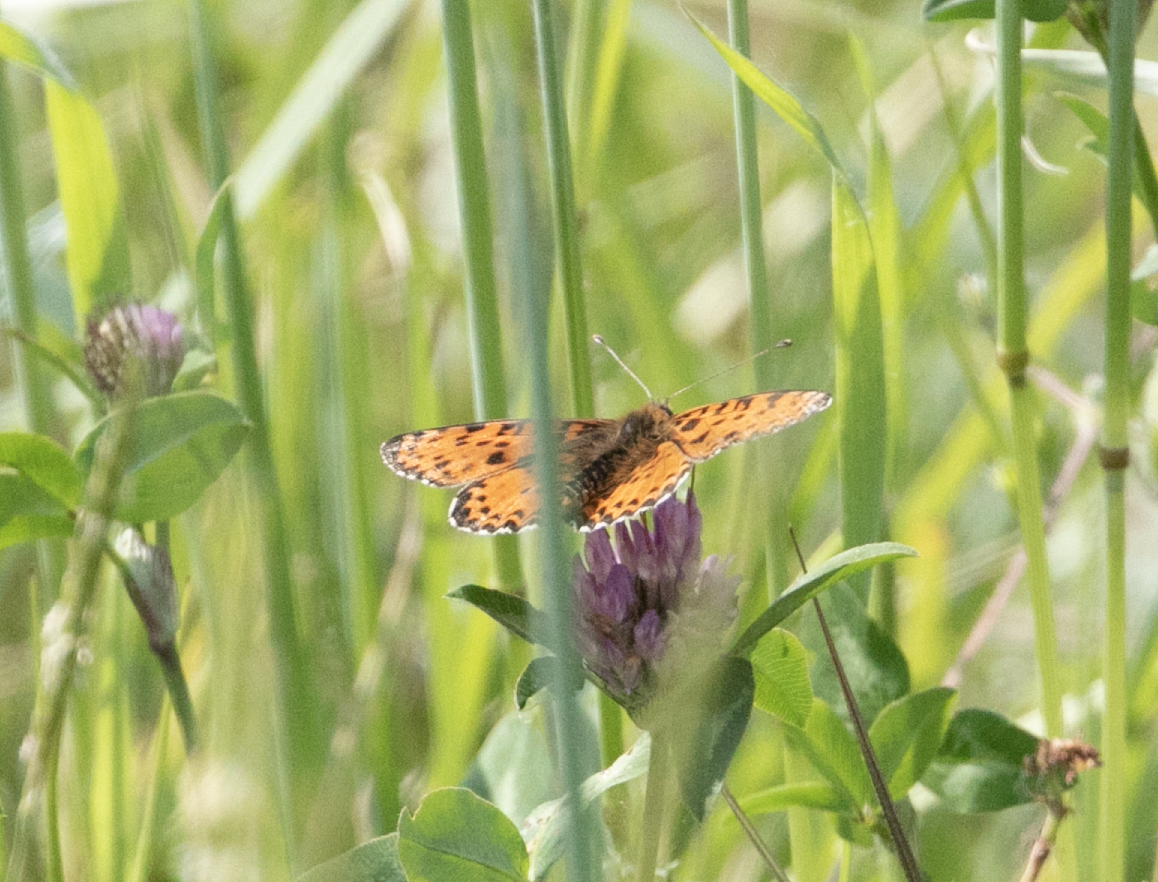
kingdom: Animalia
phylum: Arthropoda
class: Insecta
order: Lepidoptera
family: Nymphalidae
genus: Melitaea
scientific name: Melitaea didyma
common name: Spotted fritillary
